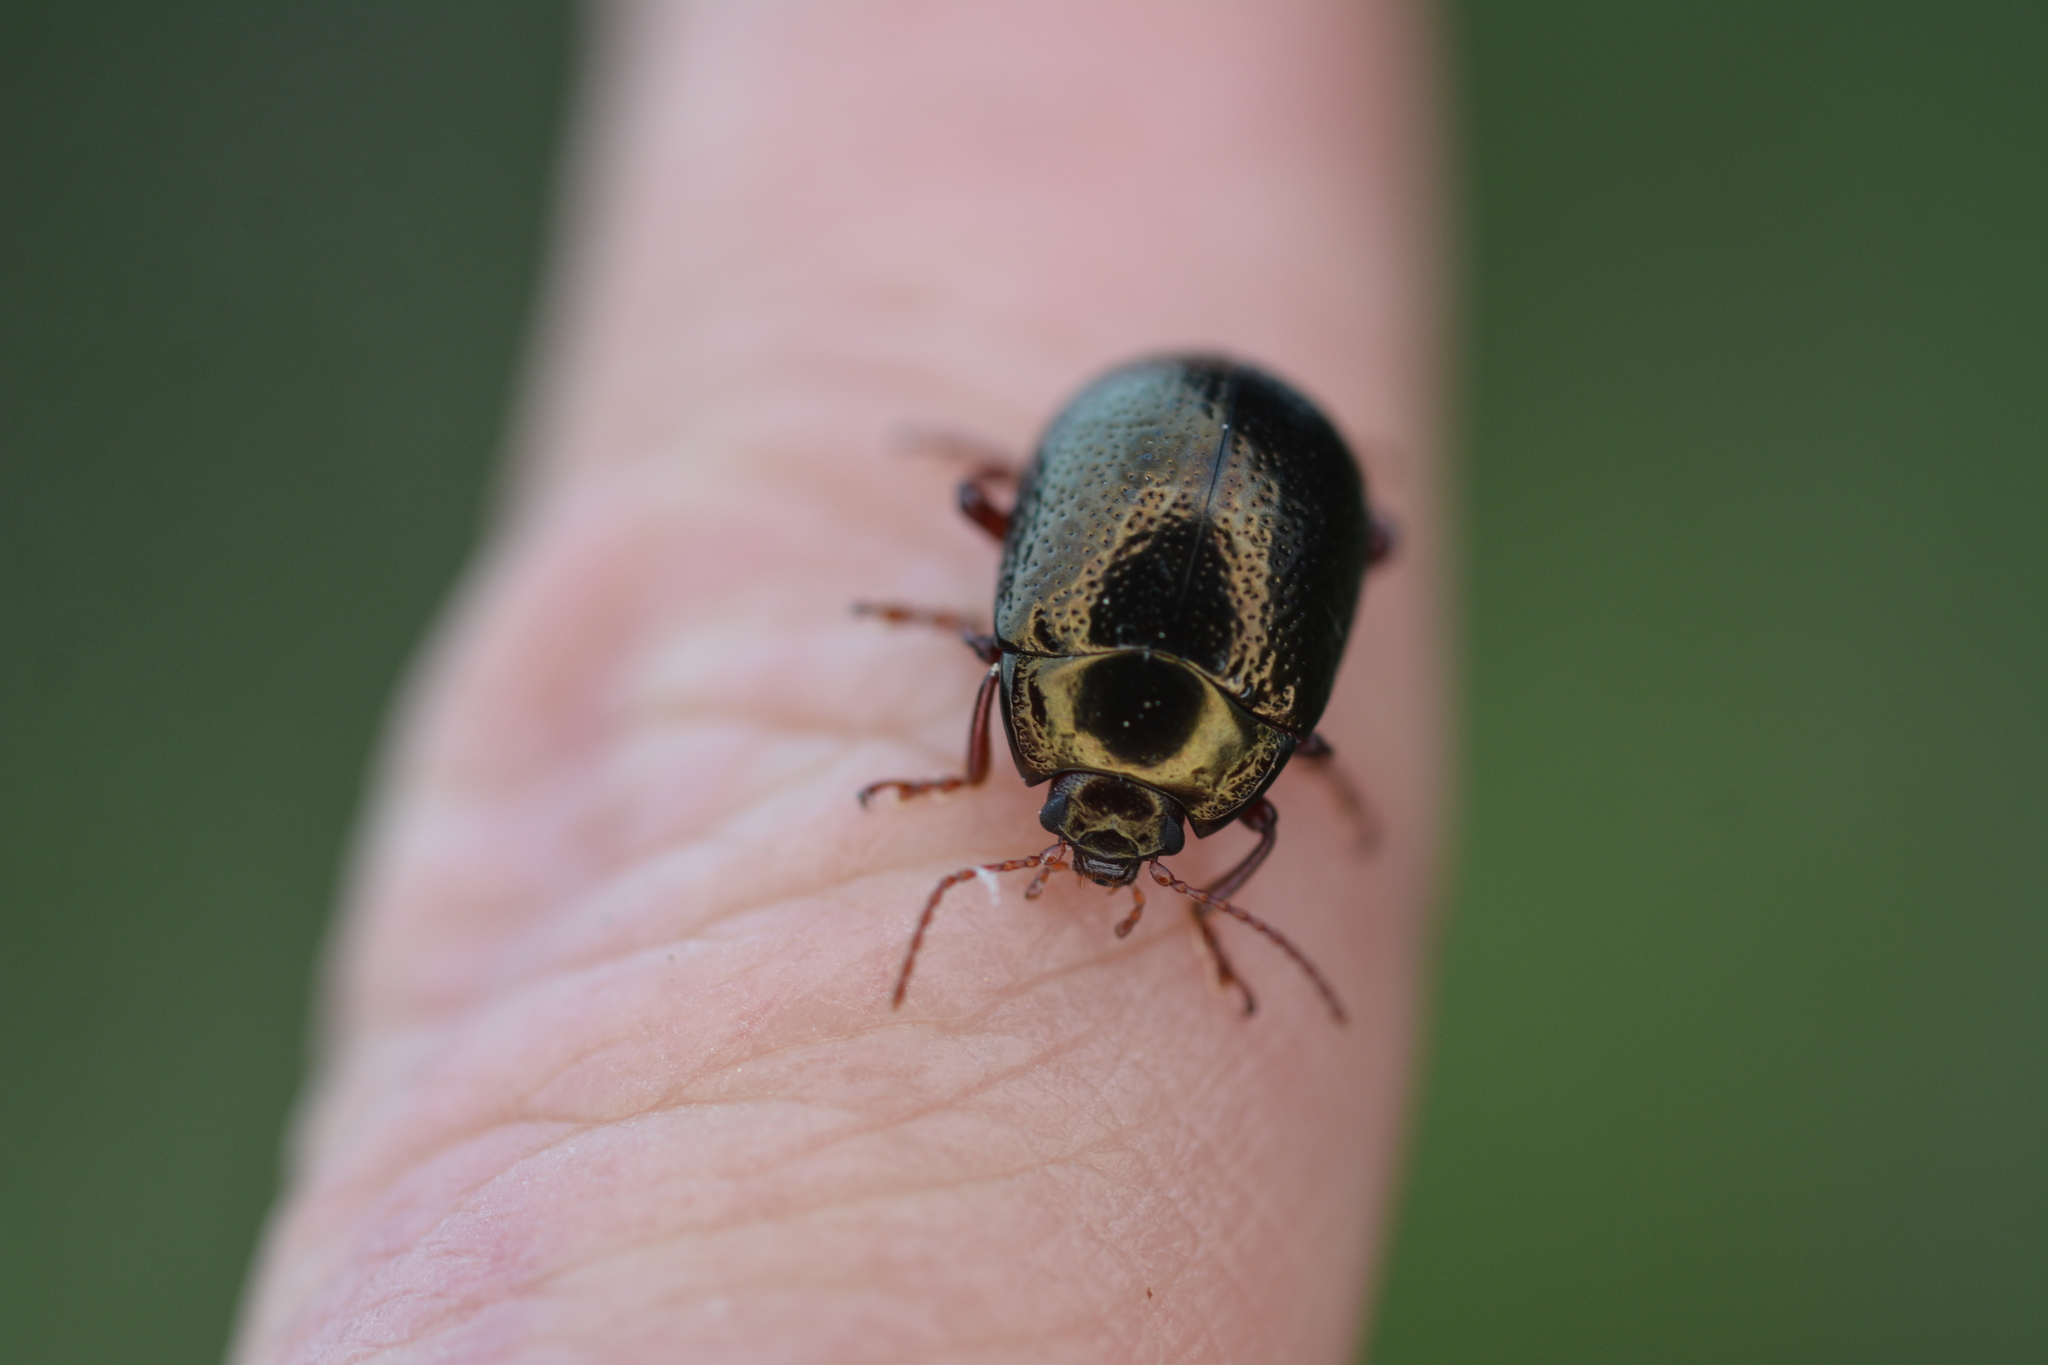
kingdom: Animalia
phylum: Arthropoda
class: Insecta
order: Coleoptera
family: Chrysomelidae
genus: Chrysolina
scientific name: Chrysolina bankii
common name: Leaf beetle
